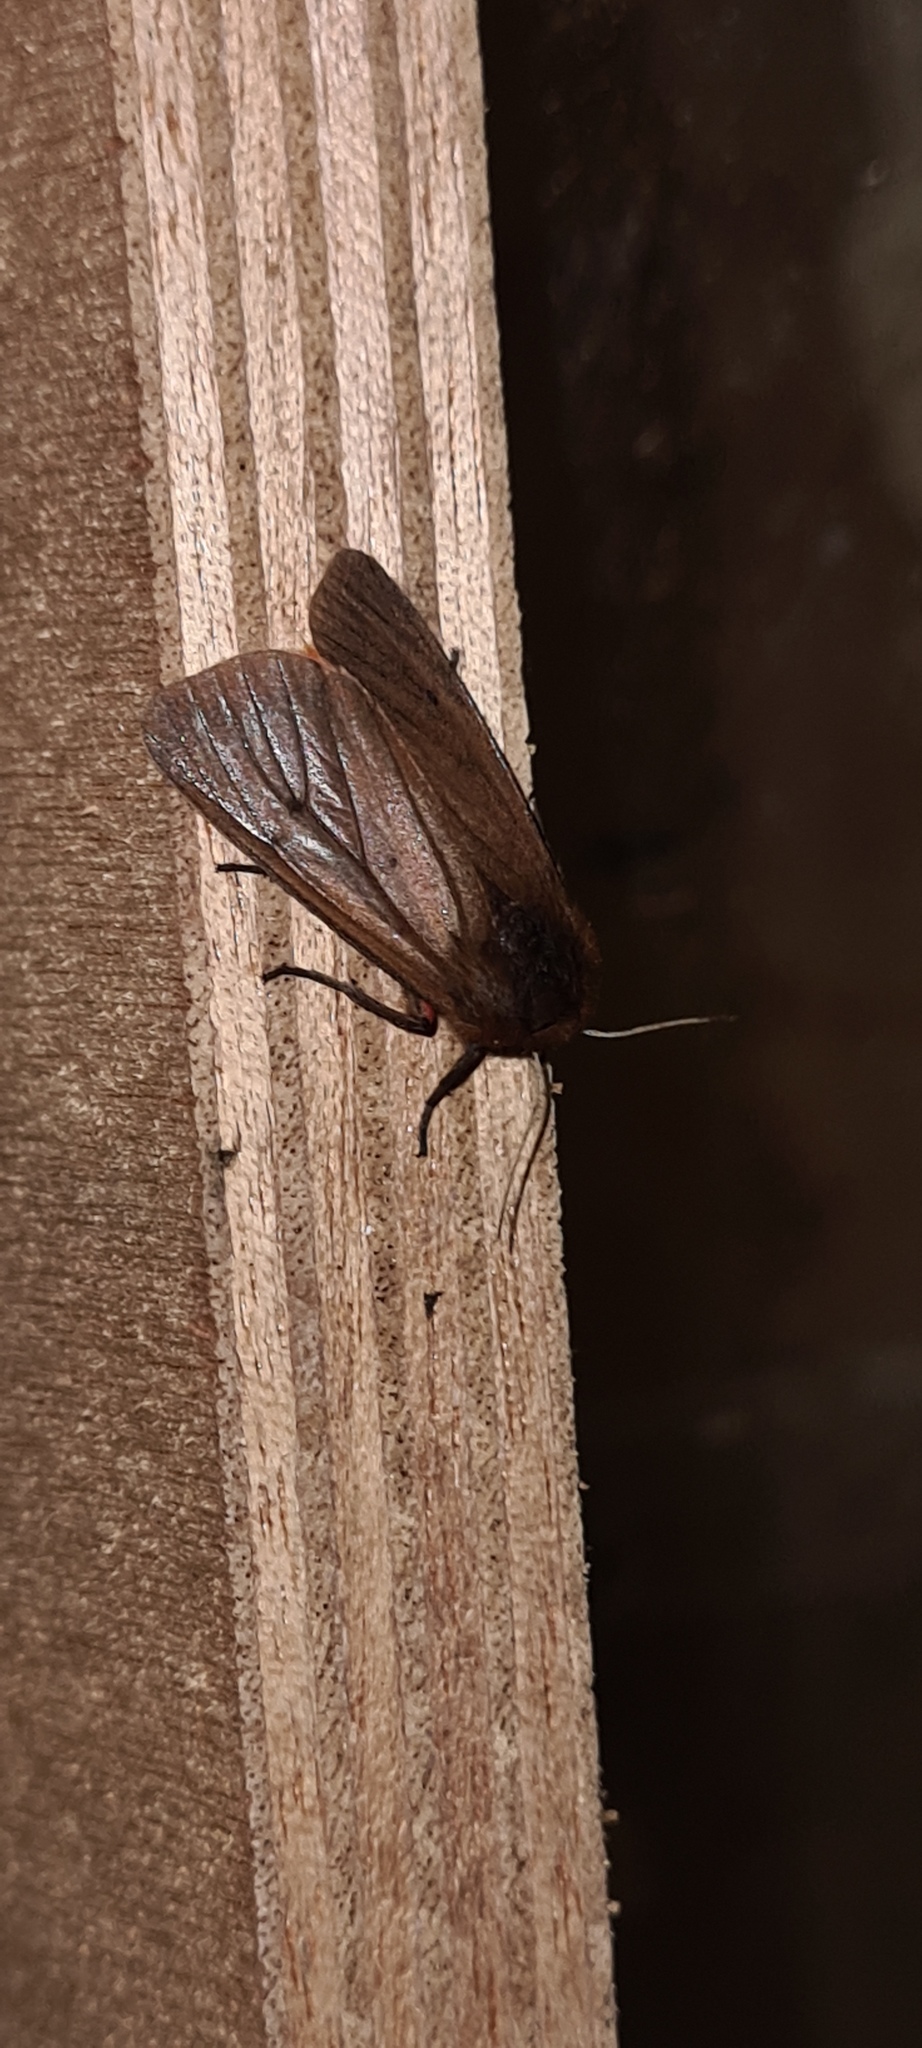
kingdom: Animalia
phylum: Arthropoda
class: Insecta
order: Lepidoptera
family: Erebidae
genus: Phragmatobia
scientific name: Phragmatobia fuliginosa
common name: Ruby tiger
